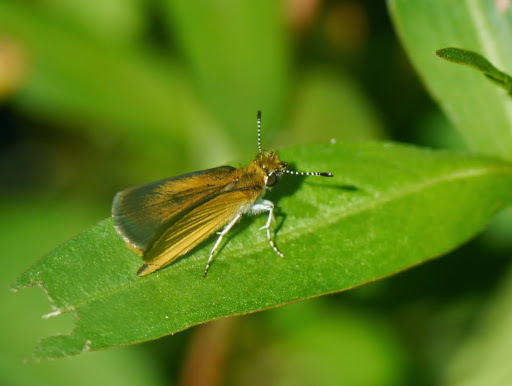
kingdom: Animalia
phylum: Arthropoda
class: Insecta
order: Lepidoptera
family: Hesperiidae
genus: Ancyloxypha
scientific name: Ancyloxypha numitor
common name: Least skipper
